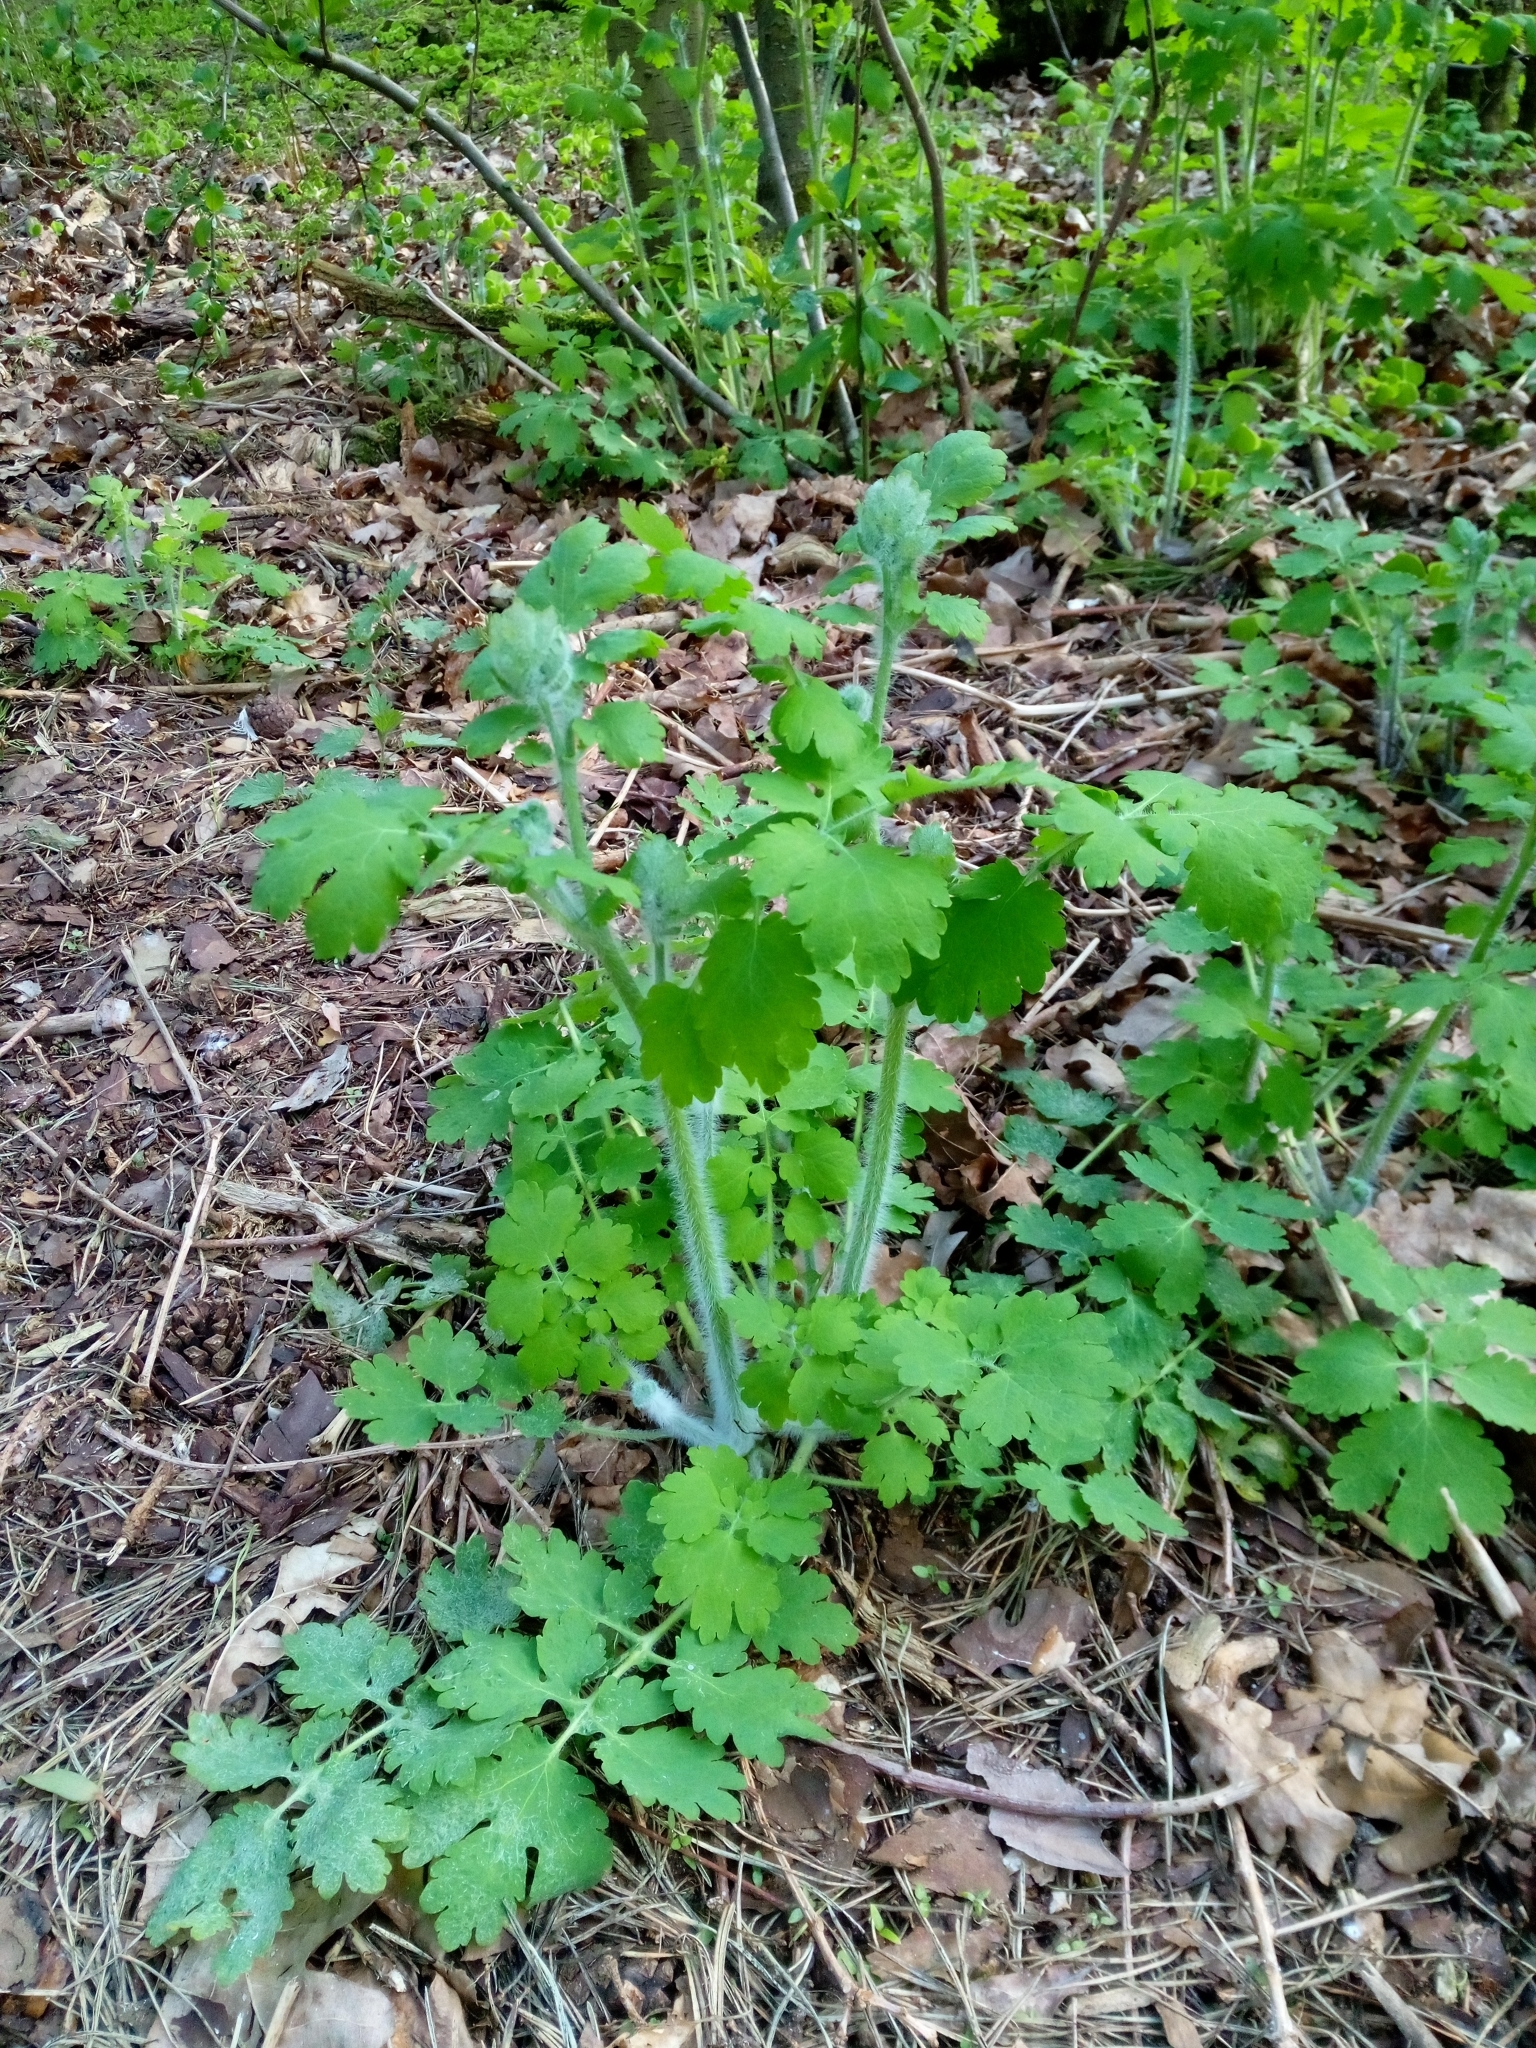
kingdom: Plantae
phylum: Tracheophyta
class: Magnoliopsida
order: Ranunculales
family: Papaveraceae
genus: Chelidonium
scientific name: Chelidonium majus
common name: Greater celandine
